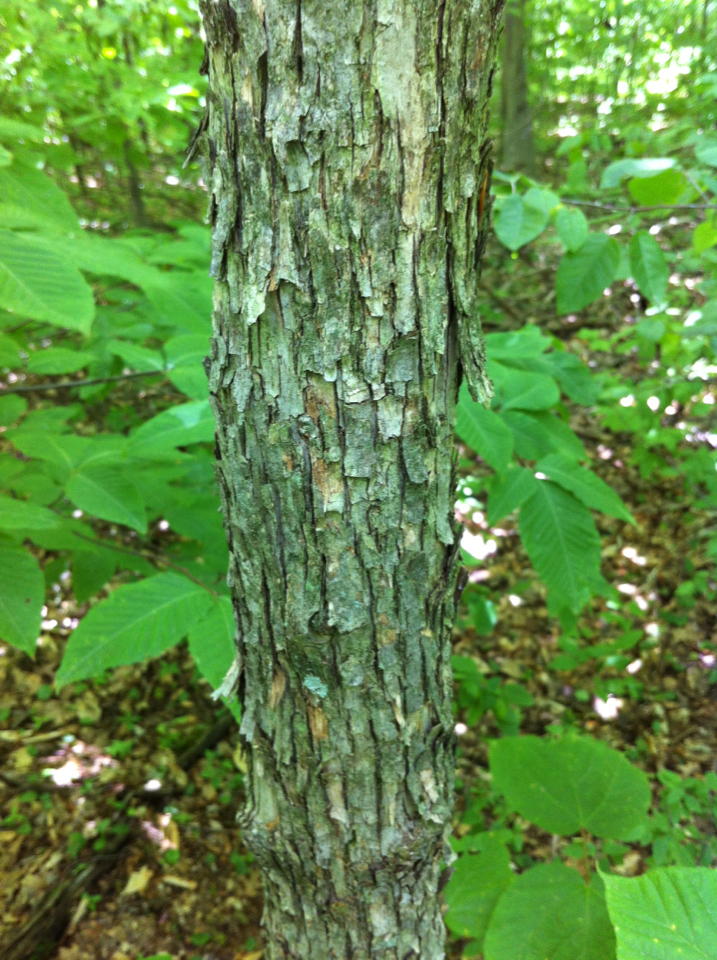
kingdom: Plantae
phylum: Tracheophyta
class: Magnoliopsida
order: Fagales
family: Betulaceae
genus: Ostrya
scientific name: Ostrya virginiana
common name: Ironwood
